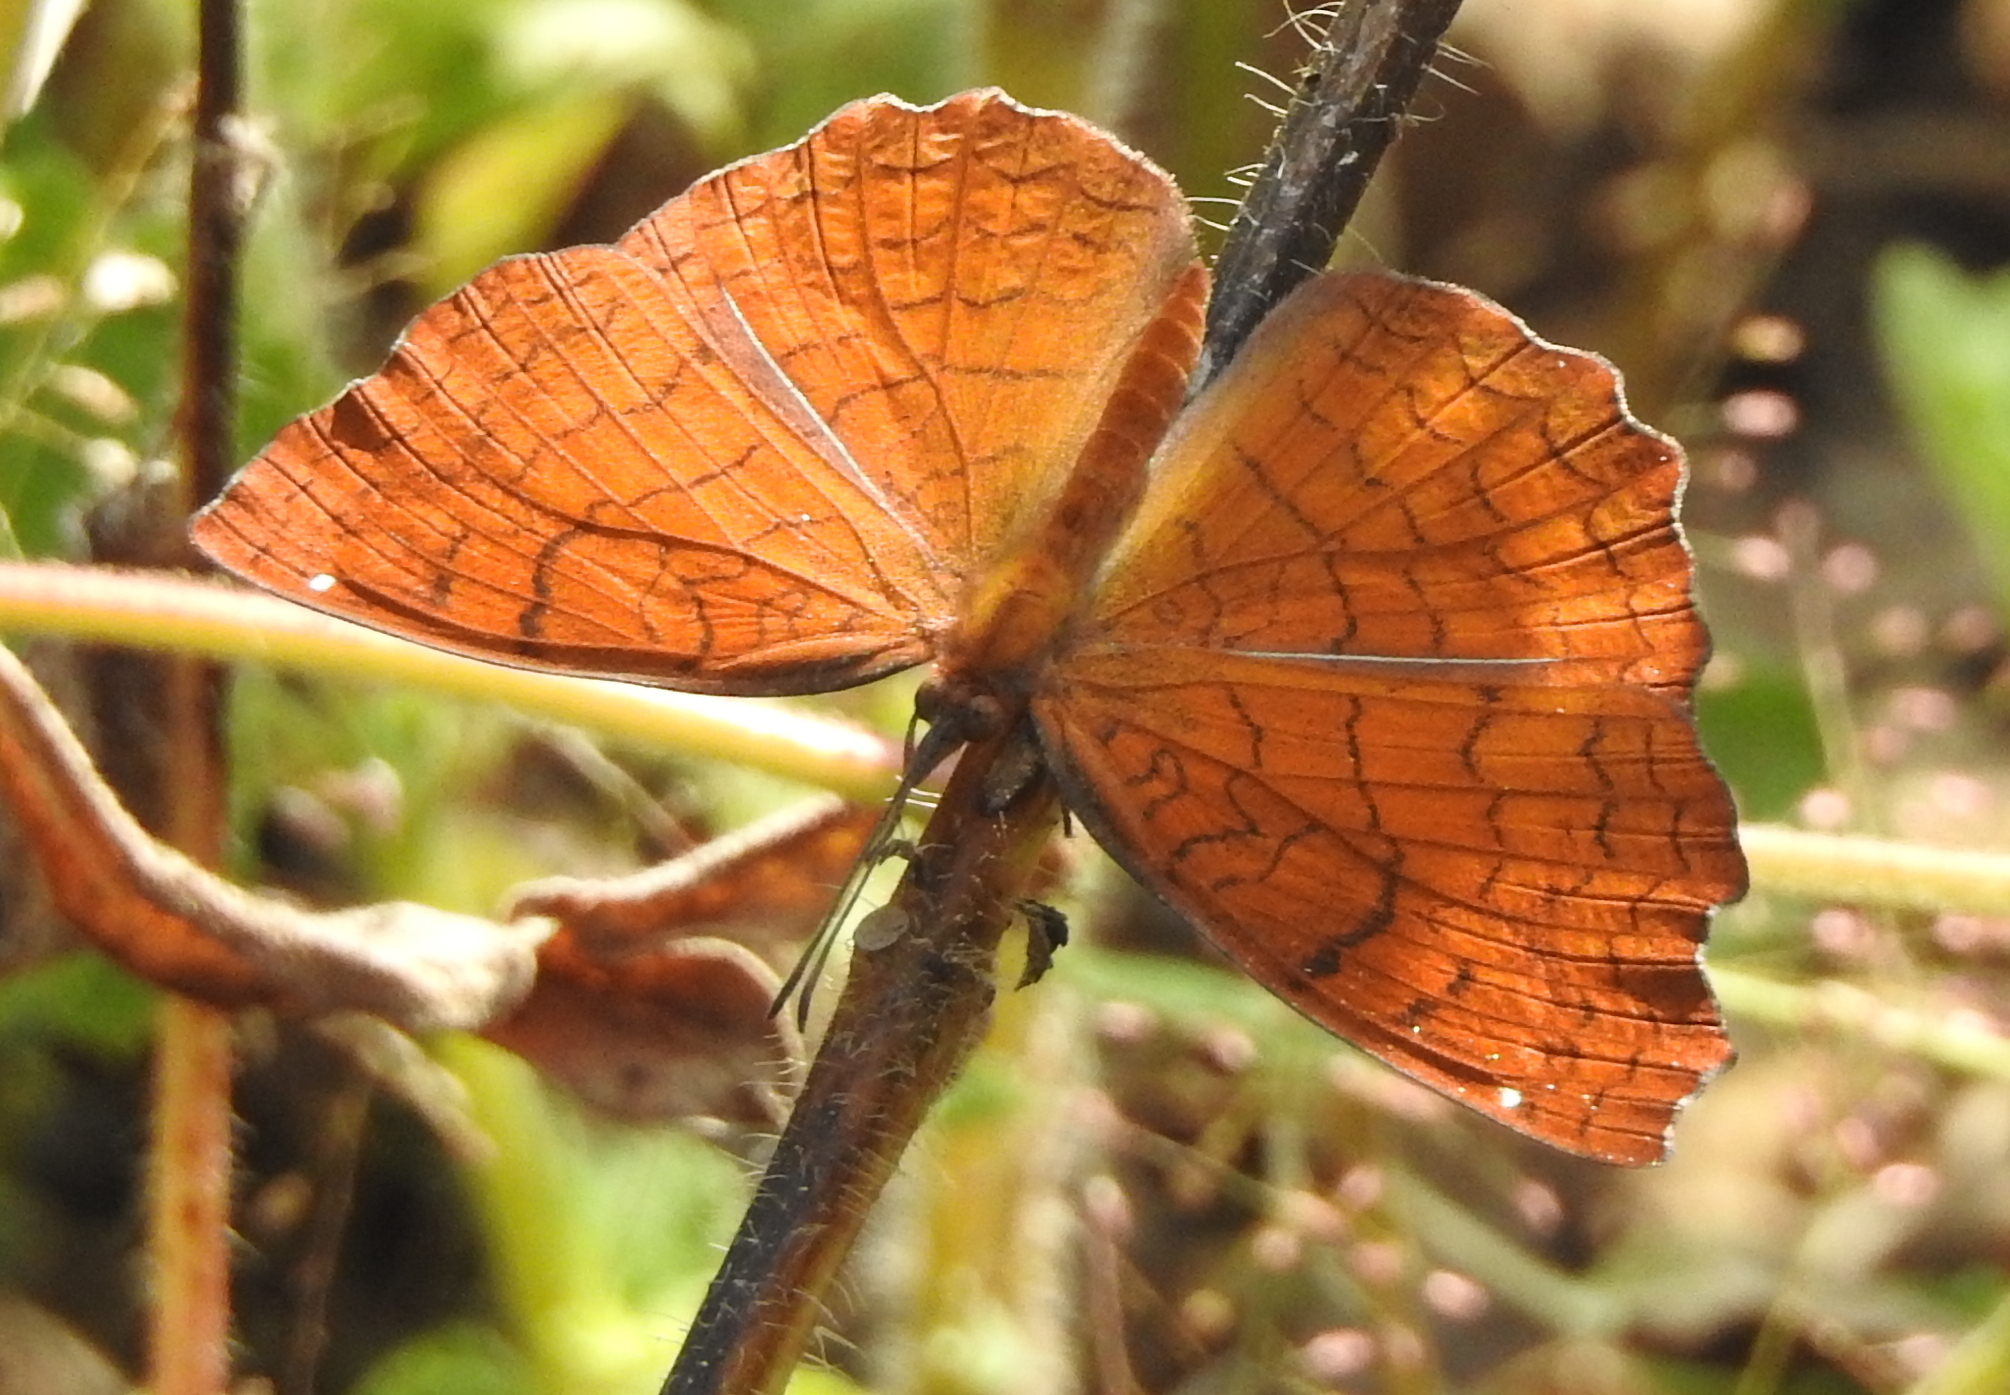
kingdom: Animalia
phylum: Arthropoda
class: Insecta
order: Lepidoptera
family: Nymphalidae
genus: Ariadne
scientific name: Ariadne ariadne
